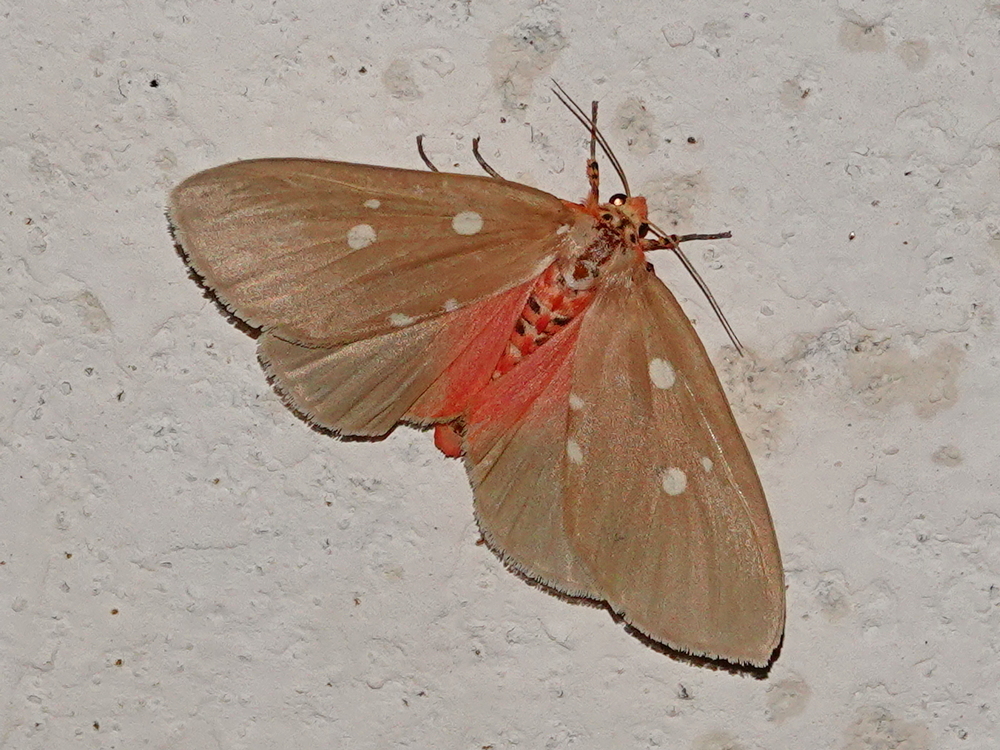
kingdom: Animalia
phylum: Arthropoda
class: Insecta
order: Lepidoptera
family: Erebidae
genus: Tinolius
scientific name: Tinolius eburneigutta
